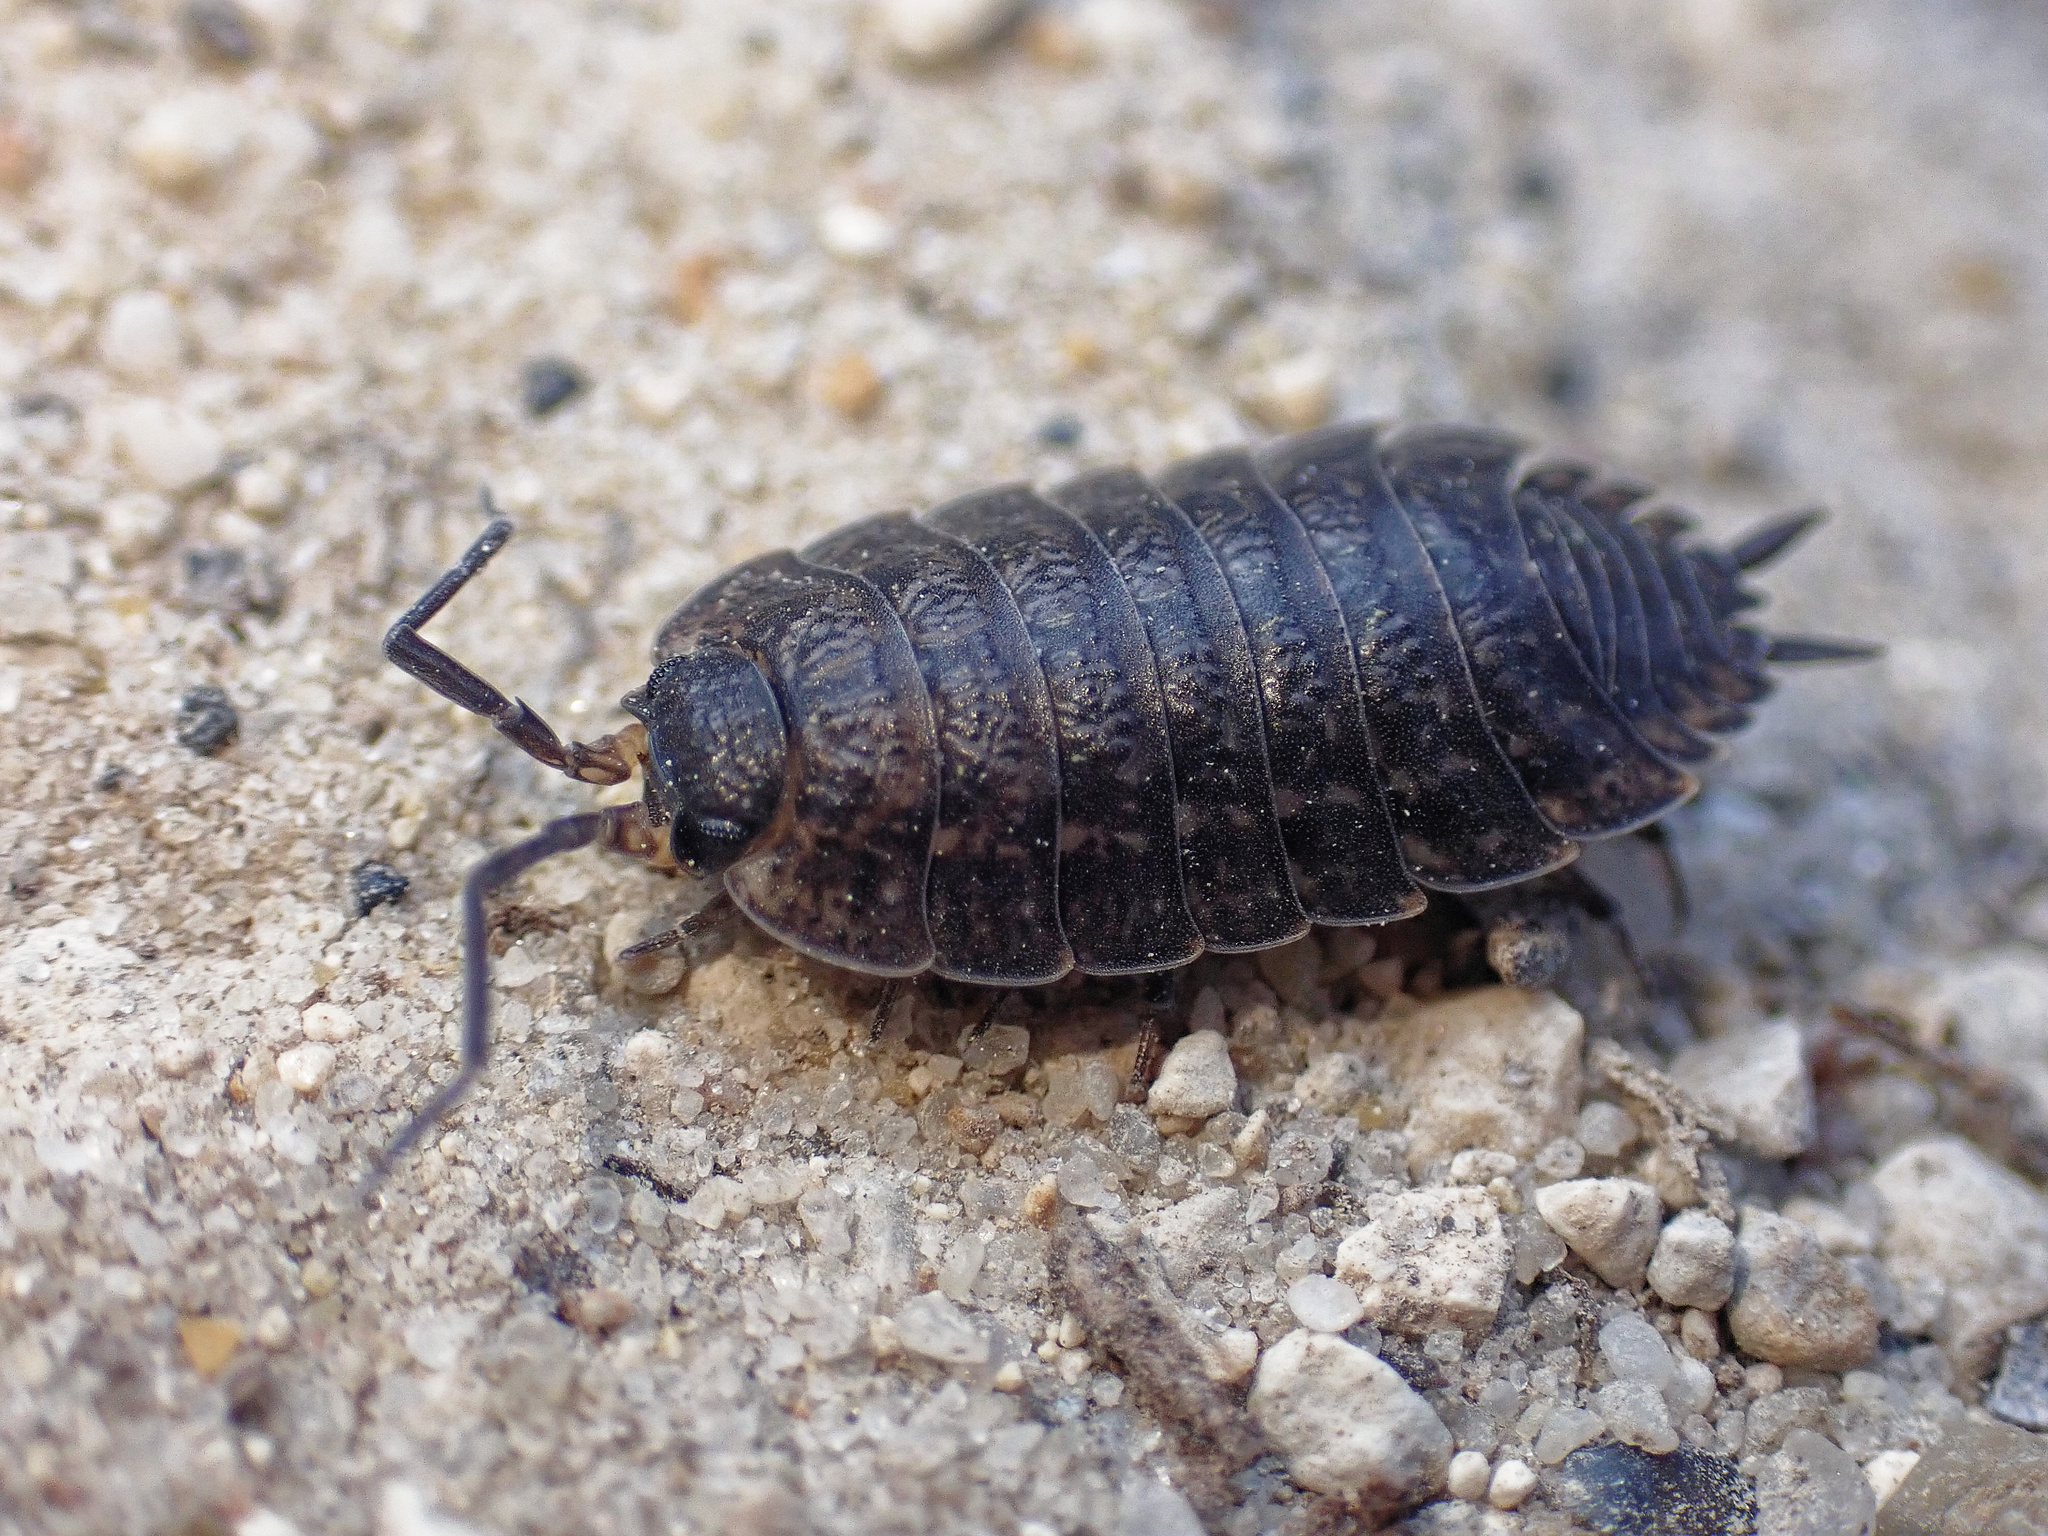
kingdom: Animalia
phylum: Arthropoda
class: Malacostraca
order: Isopoda
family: Porcellionidae
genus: Porcellio
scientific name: Porcellio monticola
